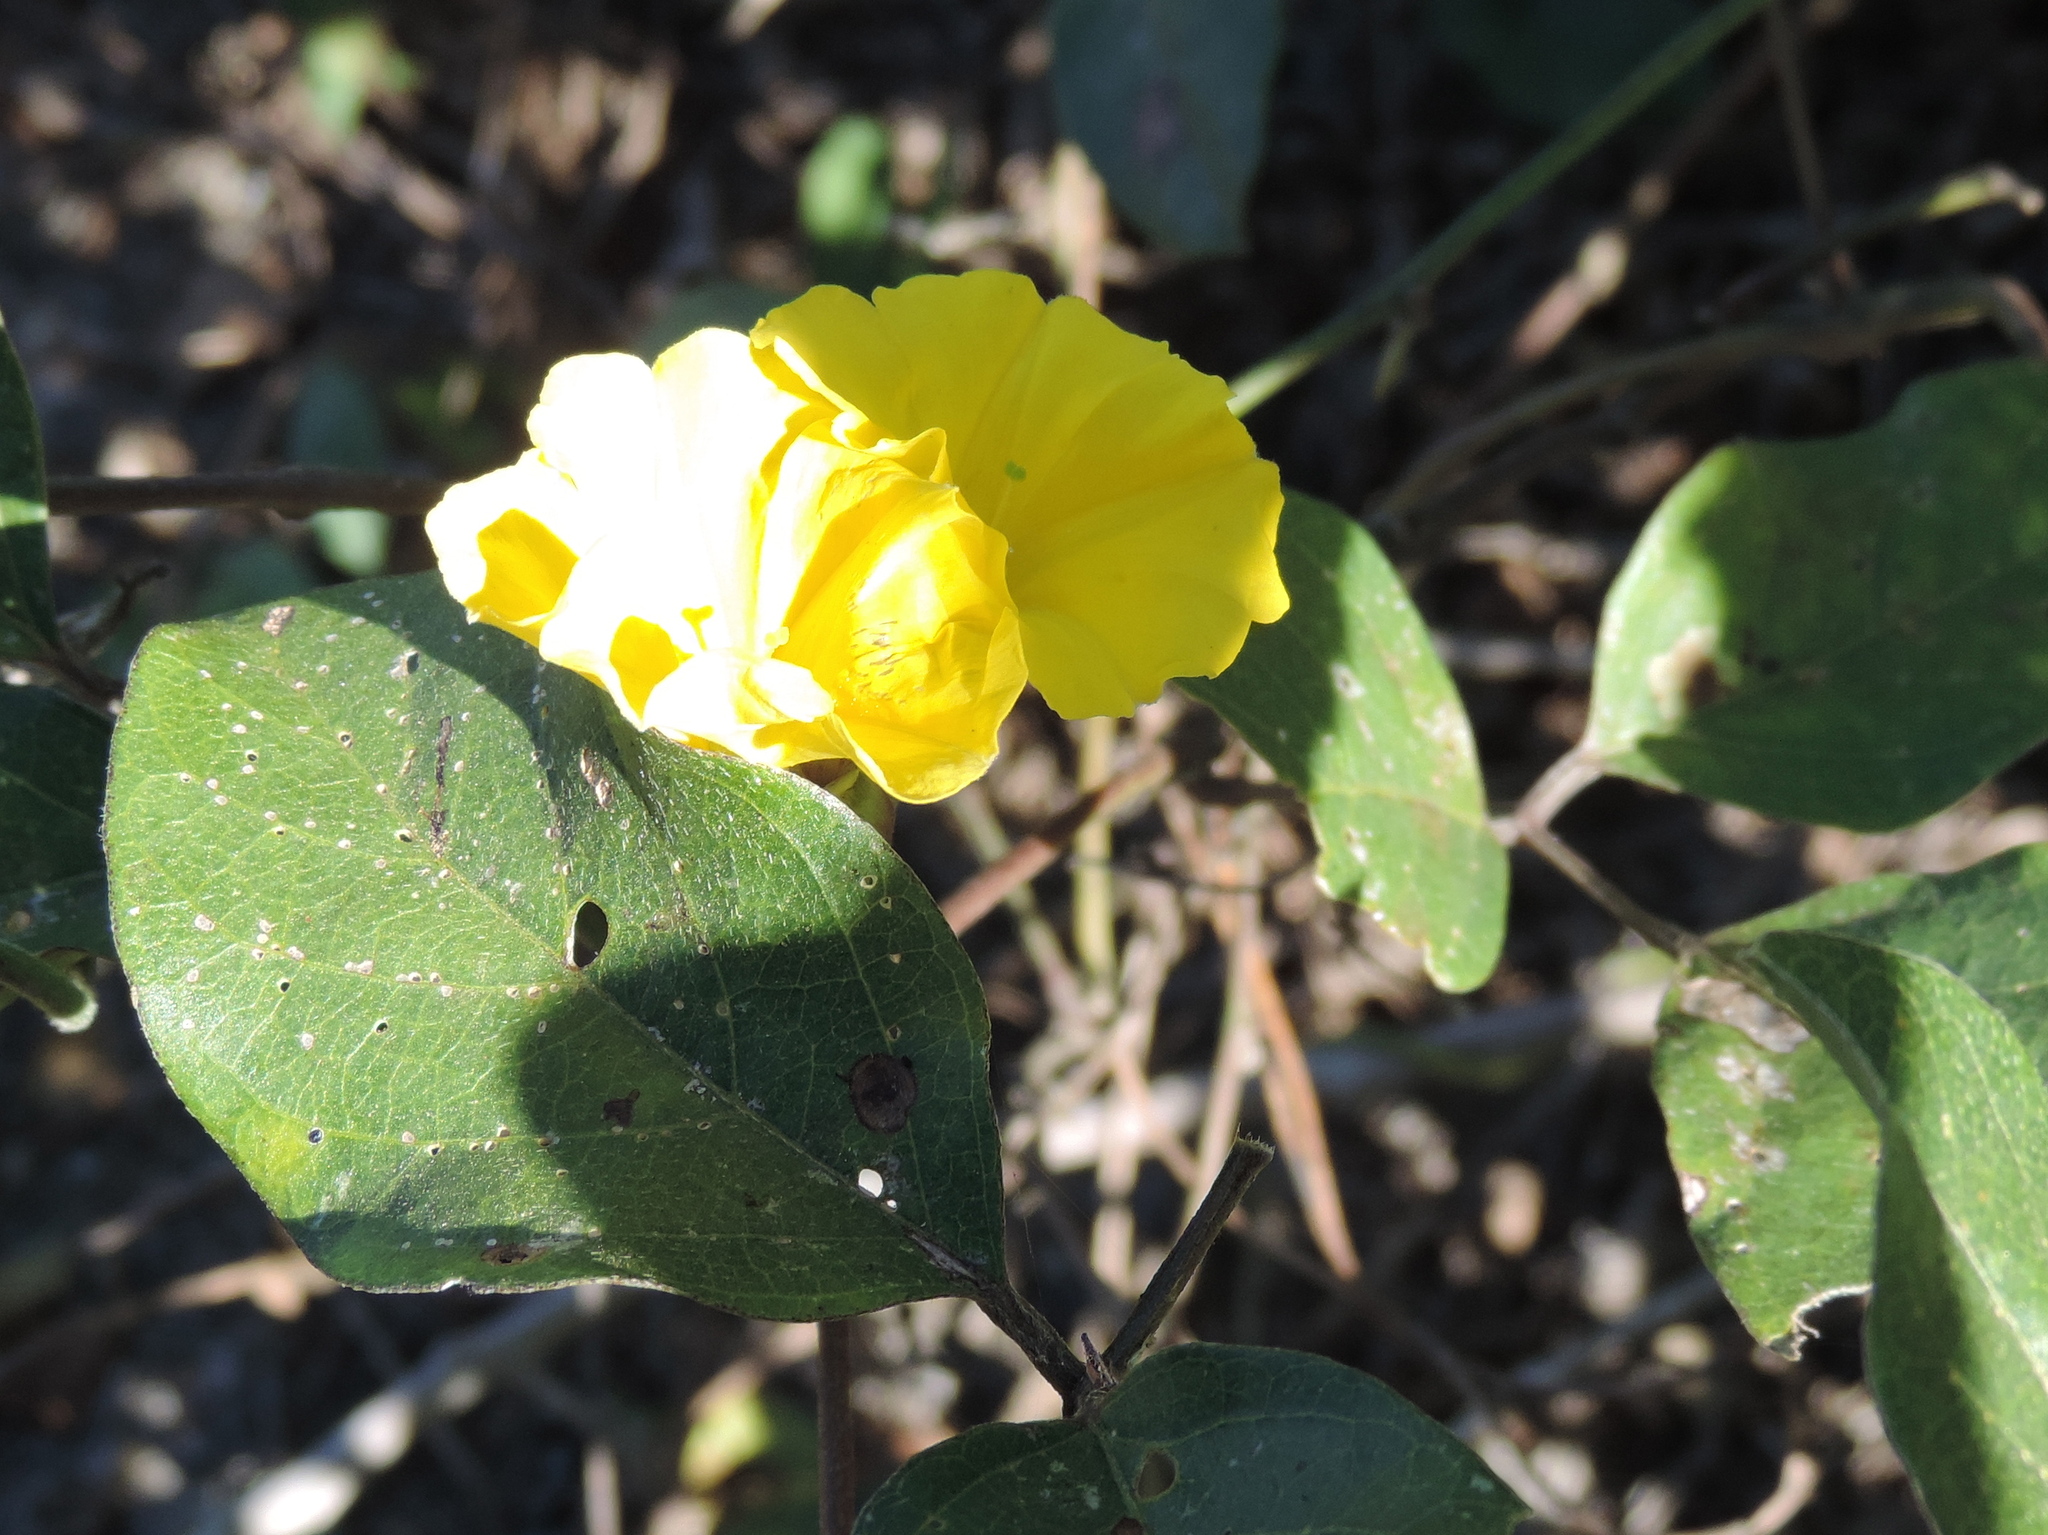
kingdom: Plantae
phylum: Tracheophyta
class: Magnoliopsida
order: Solanales
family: Convolvulaceae
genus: Camonea
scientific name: Camonea umbellata
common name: Hogvine
